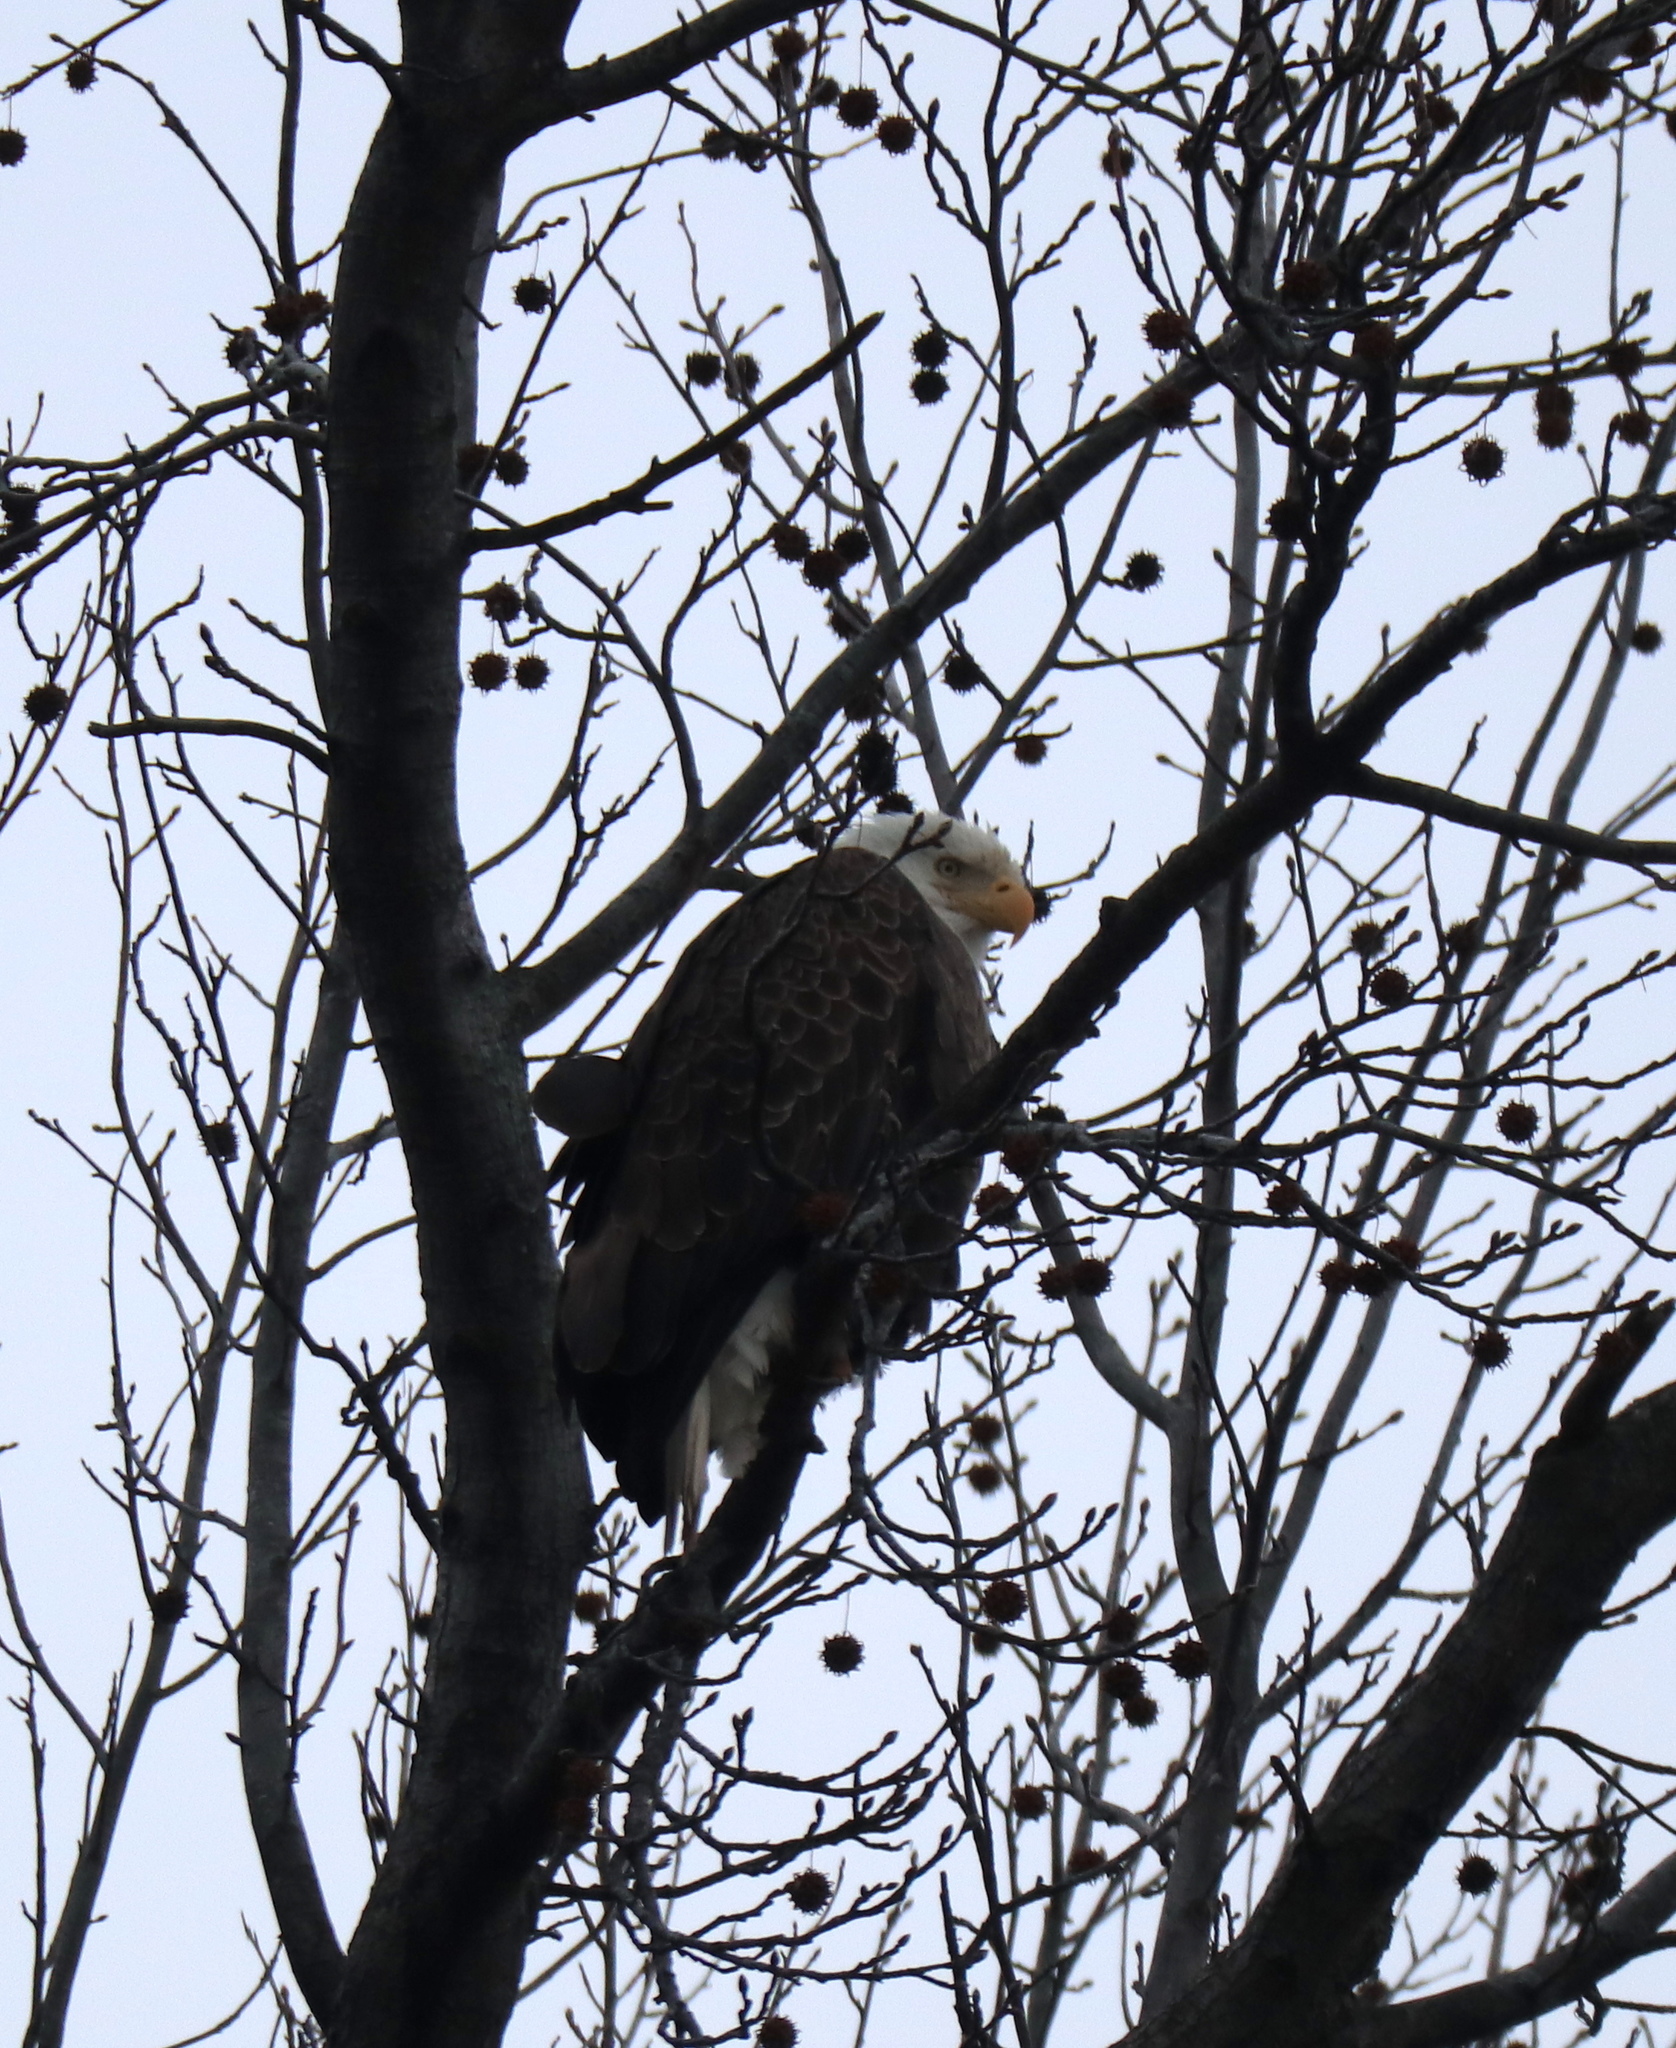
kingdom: Animalia
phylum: Chordata
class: Aves
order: Accipitriformes
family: Accipitridae
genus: Haliaeetus
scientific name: Haliaeetus leucocephalus
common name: Bald eagle
